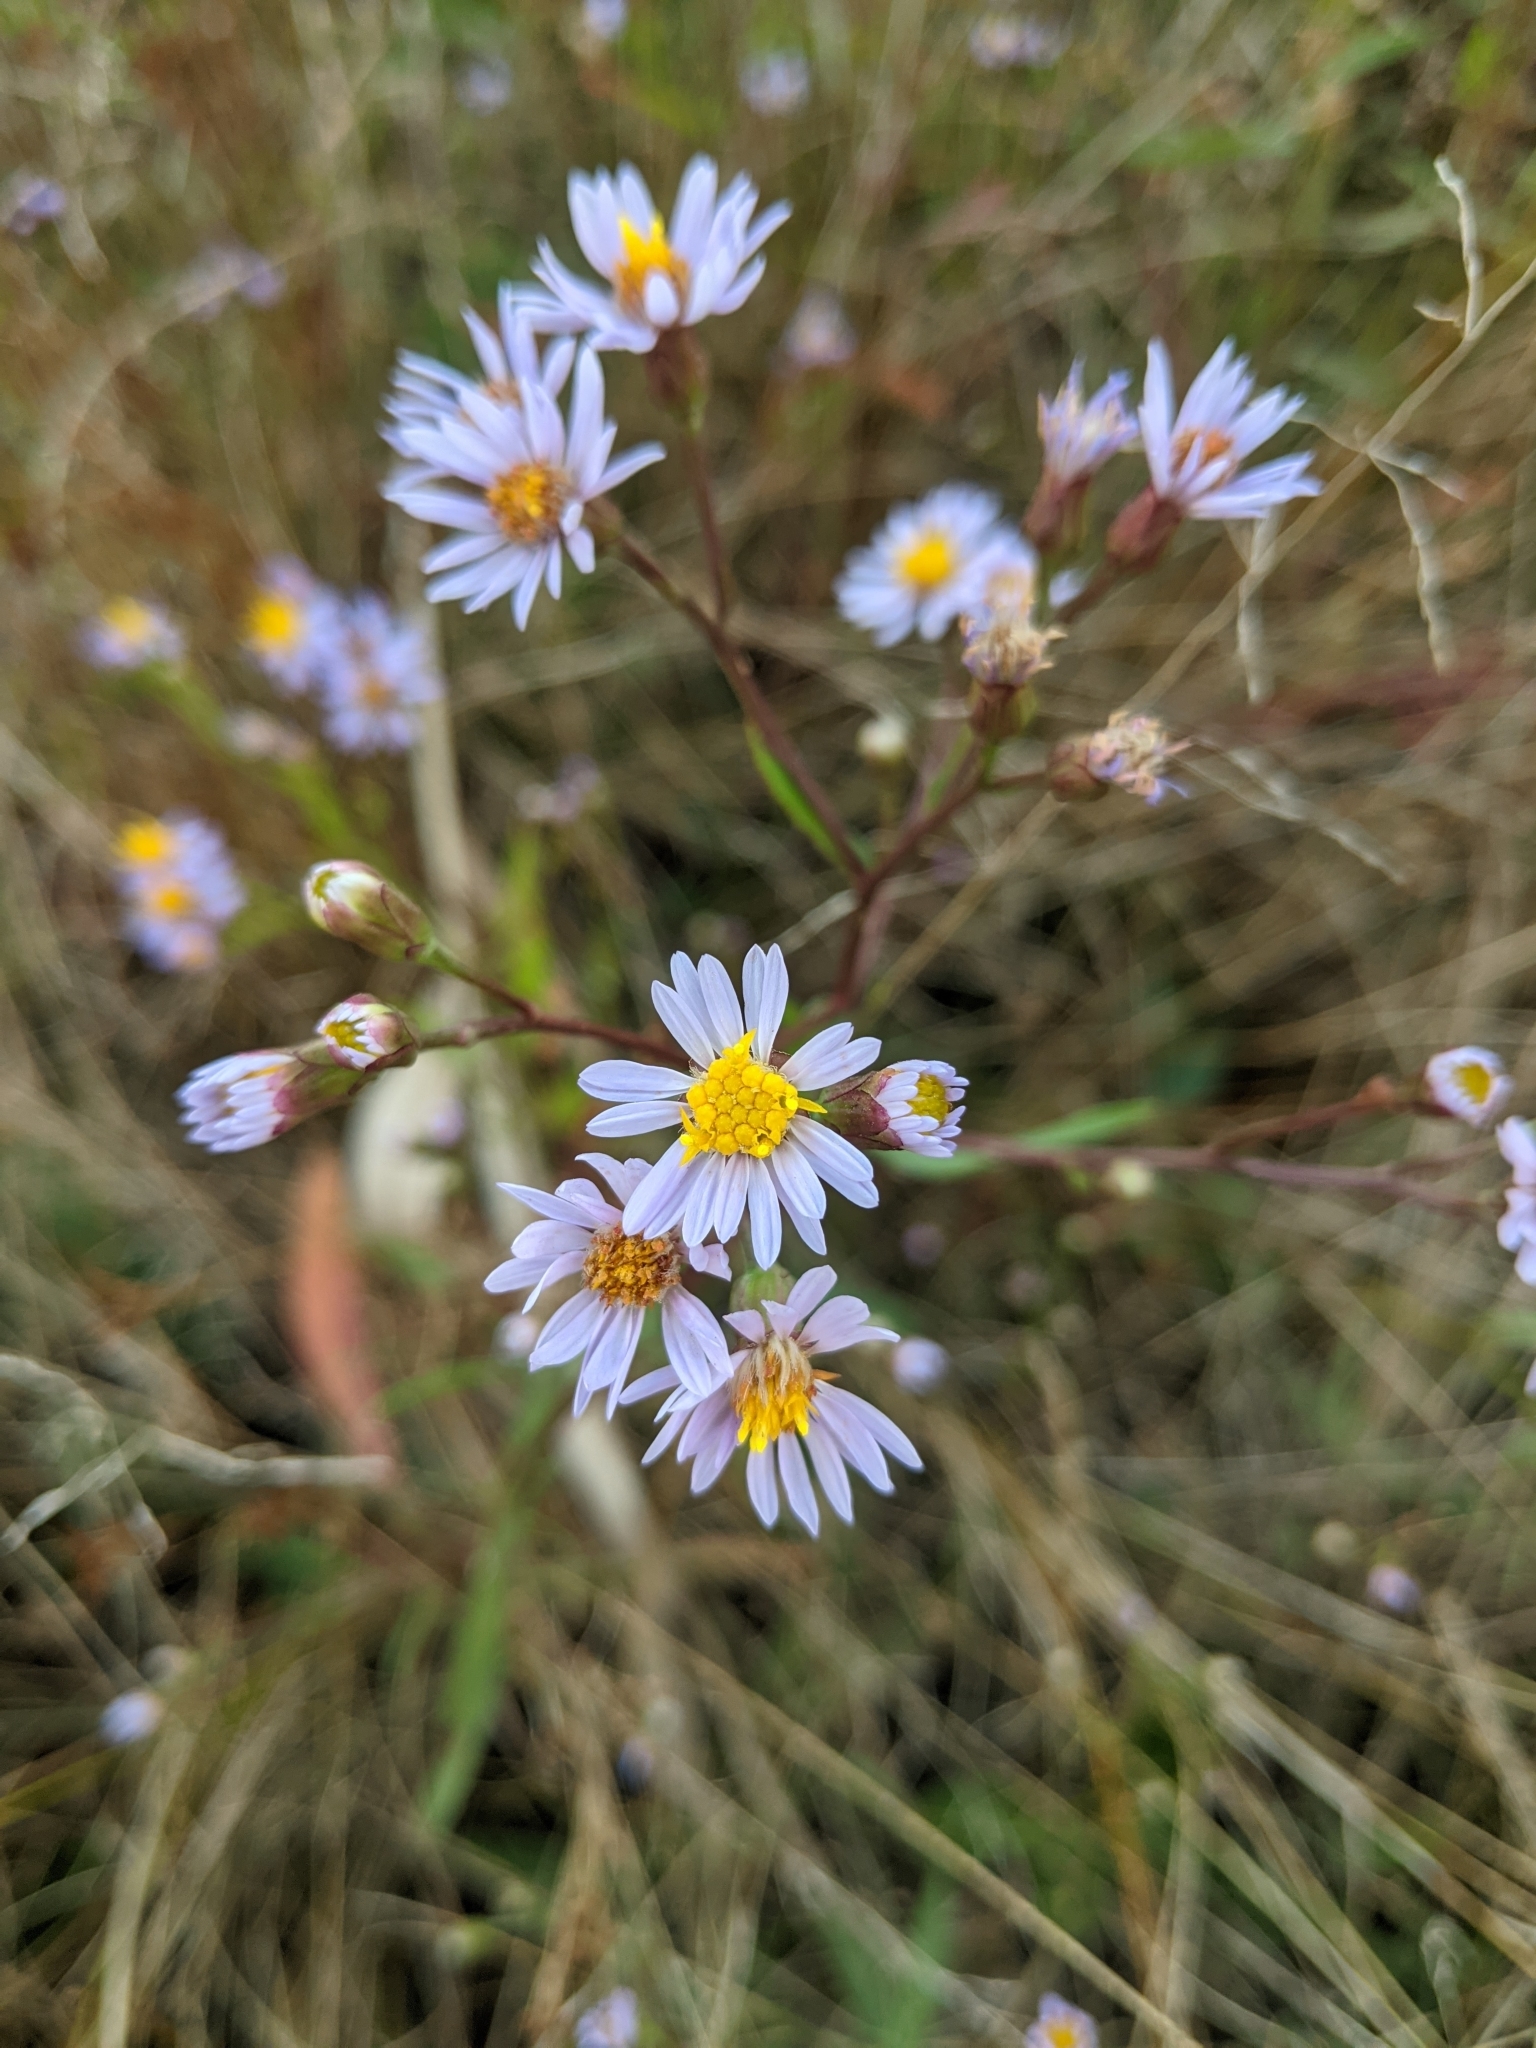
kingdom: Plantae
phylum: Tracheophyta
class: Magnoliopsida
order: Asterales
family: Asteraceae
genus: Tripolium
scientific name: Tripolium pannonicum
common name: Sea aster
